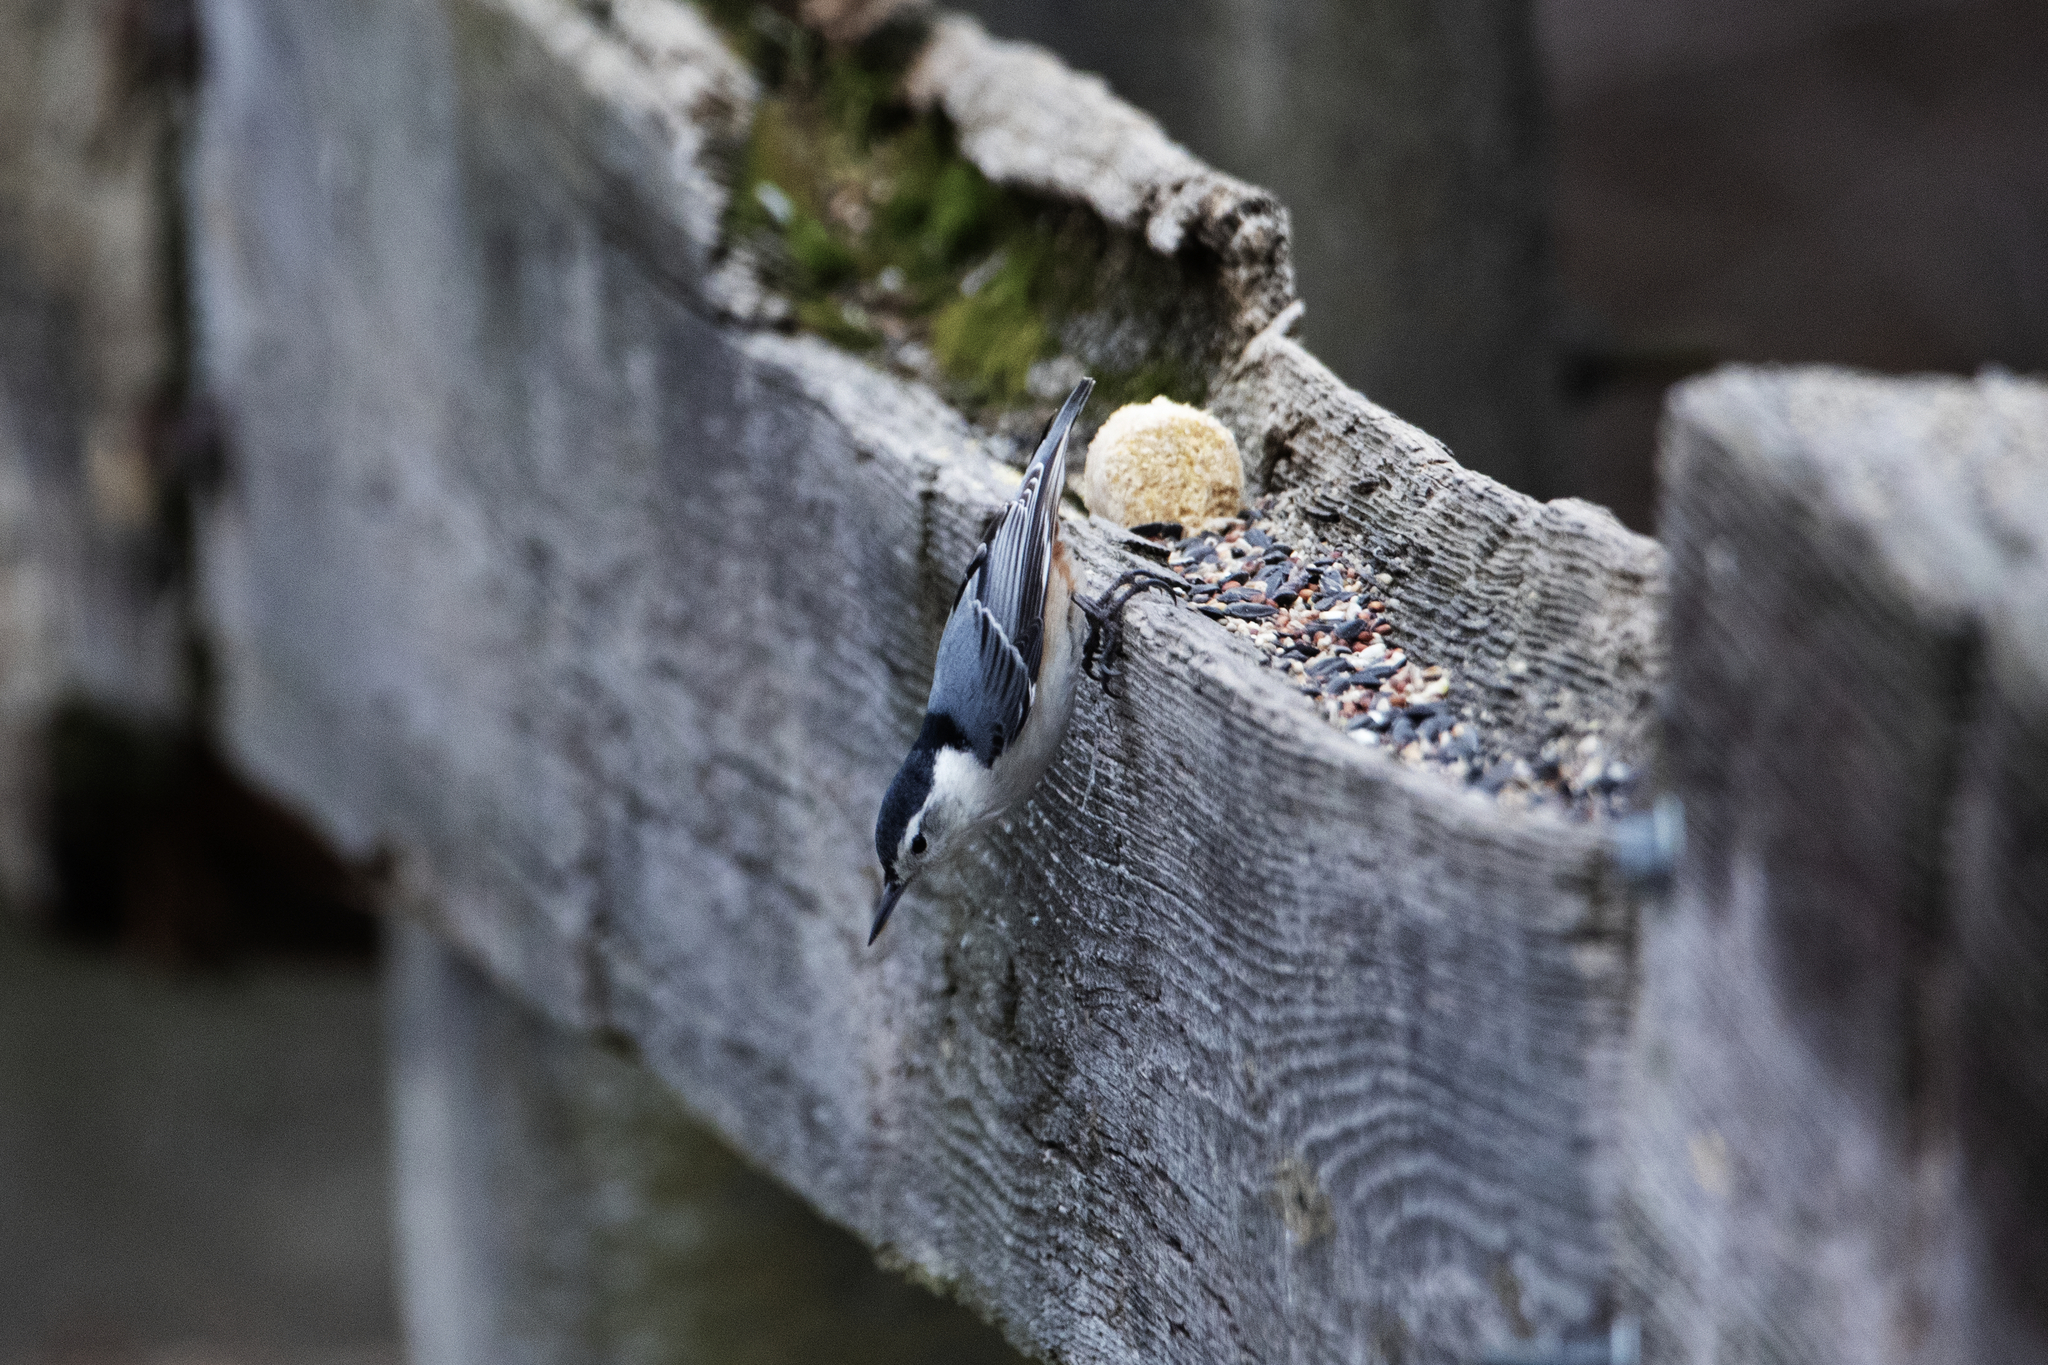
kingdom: Animalia
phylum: Chordata
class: Aves
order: Passeriformes
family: Sittidae
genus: Sitta
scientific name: Sitta carolinensis
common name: White-breasted nuthatch
